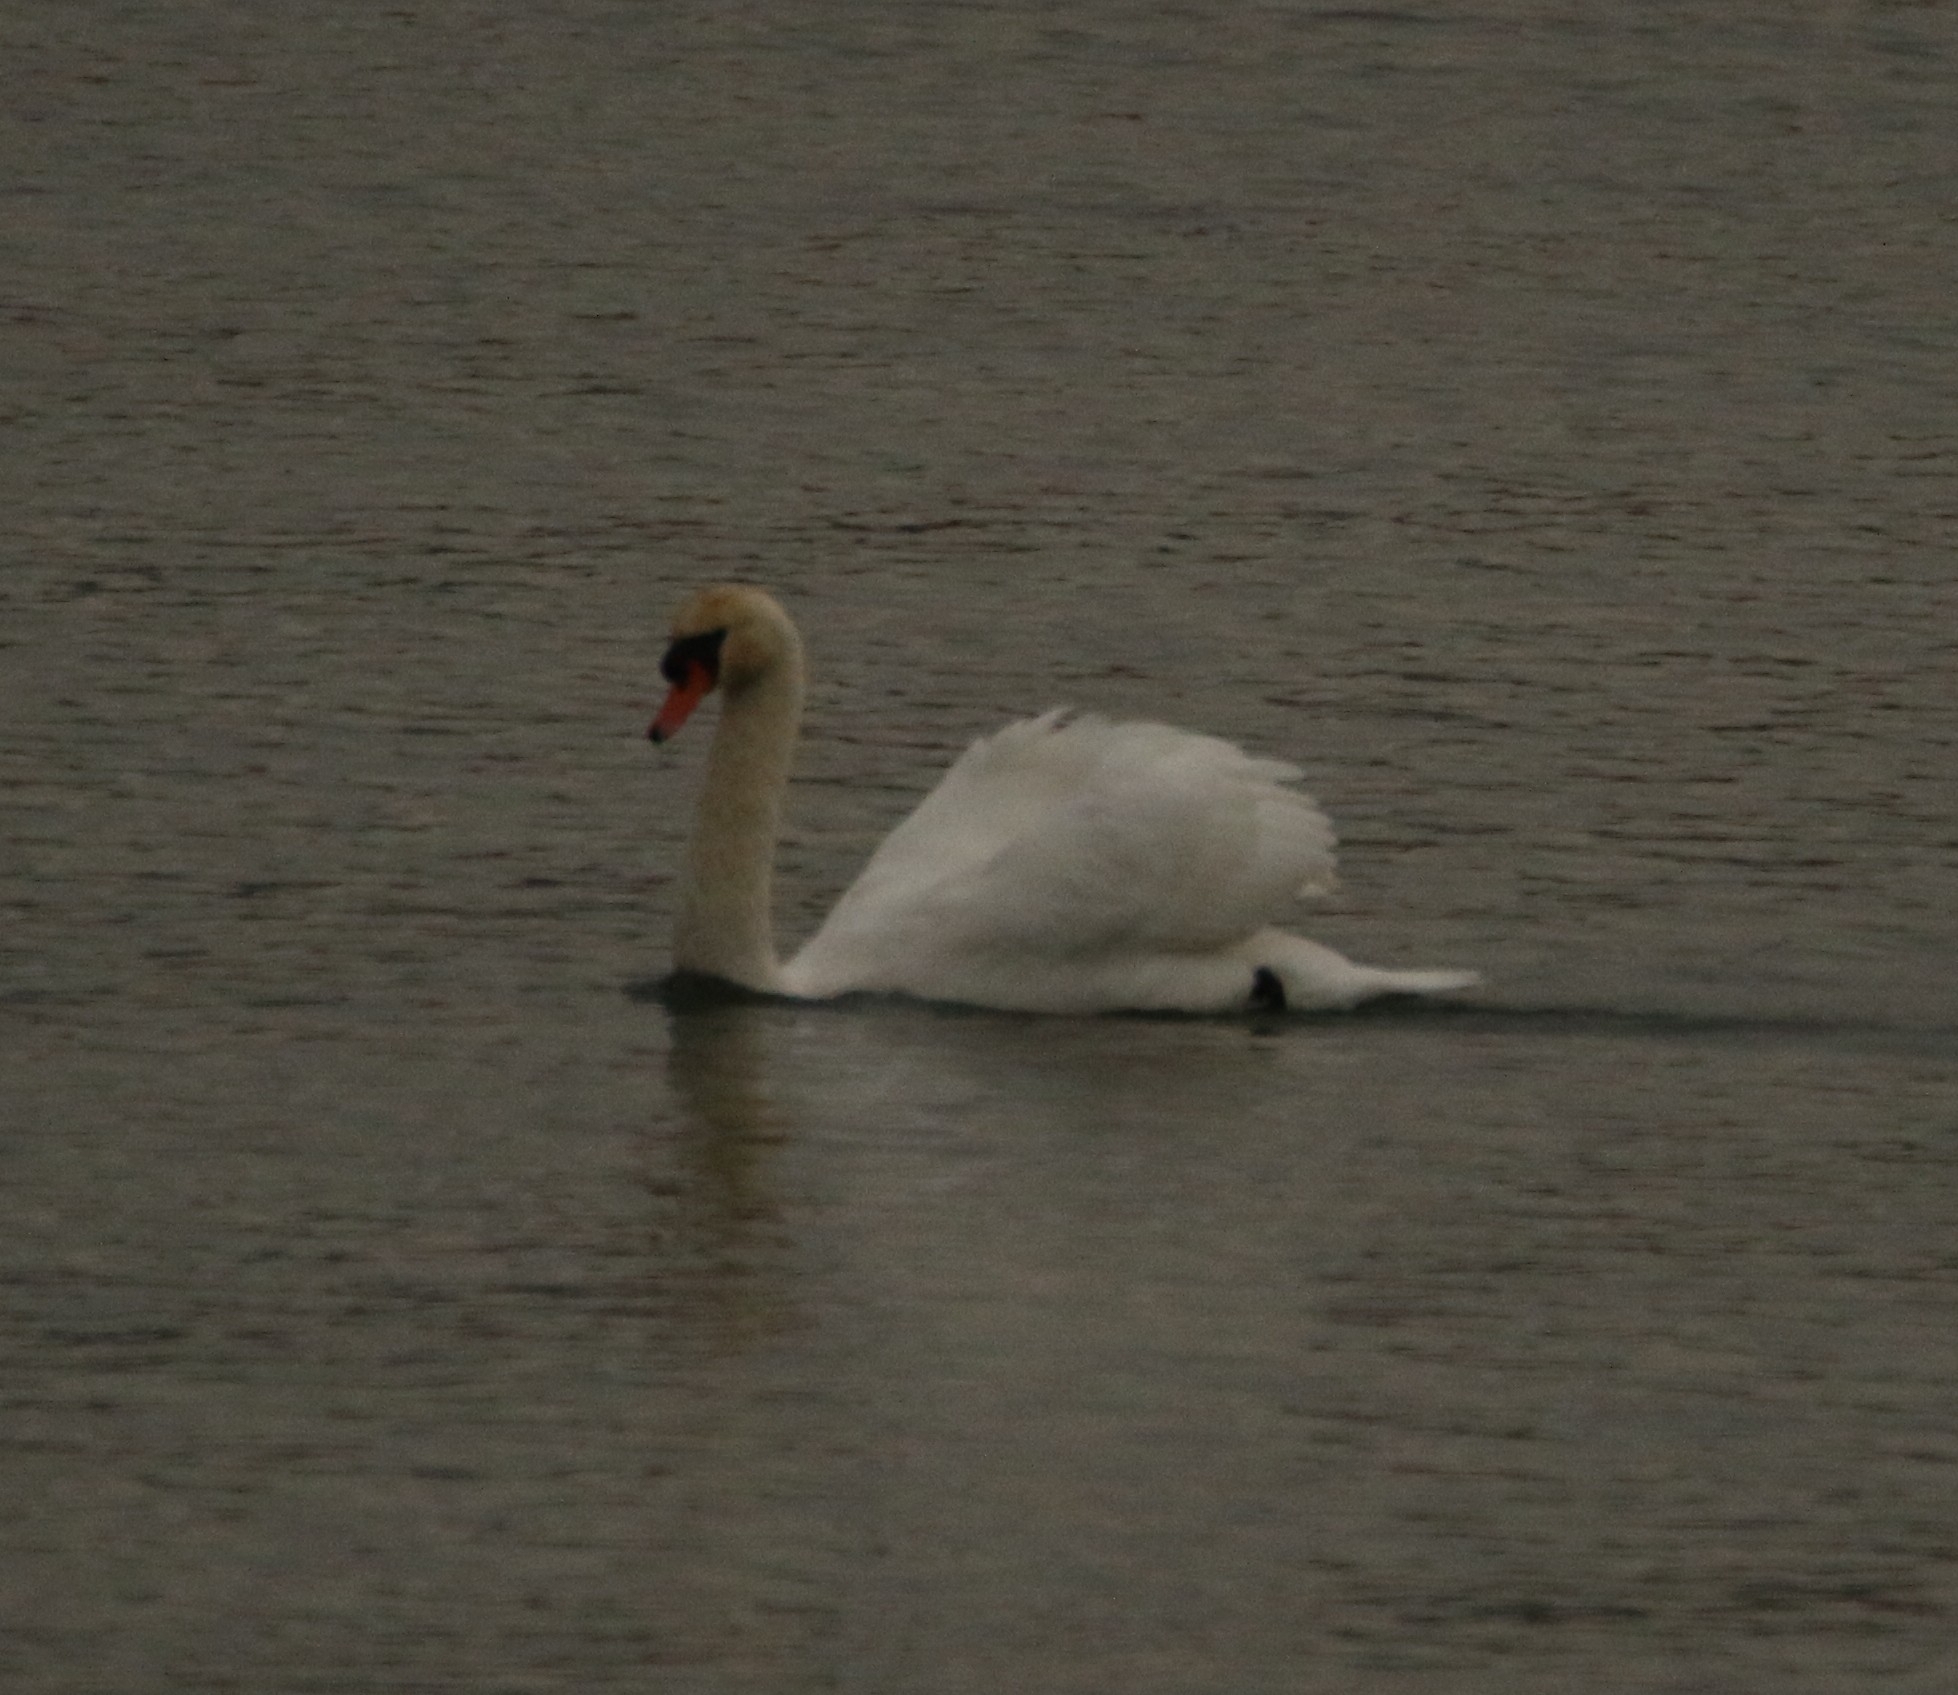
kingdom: Animalia
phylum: Chordata
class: Aves
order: Anseriformes
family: Anatidae
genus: Cygnus
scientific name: Cygnus olor
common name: Mute swan
